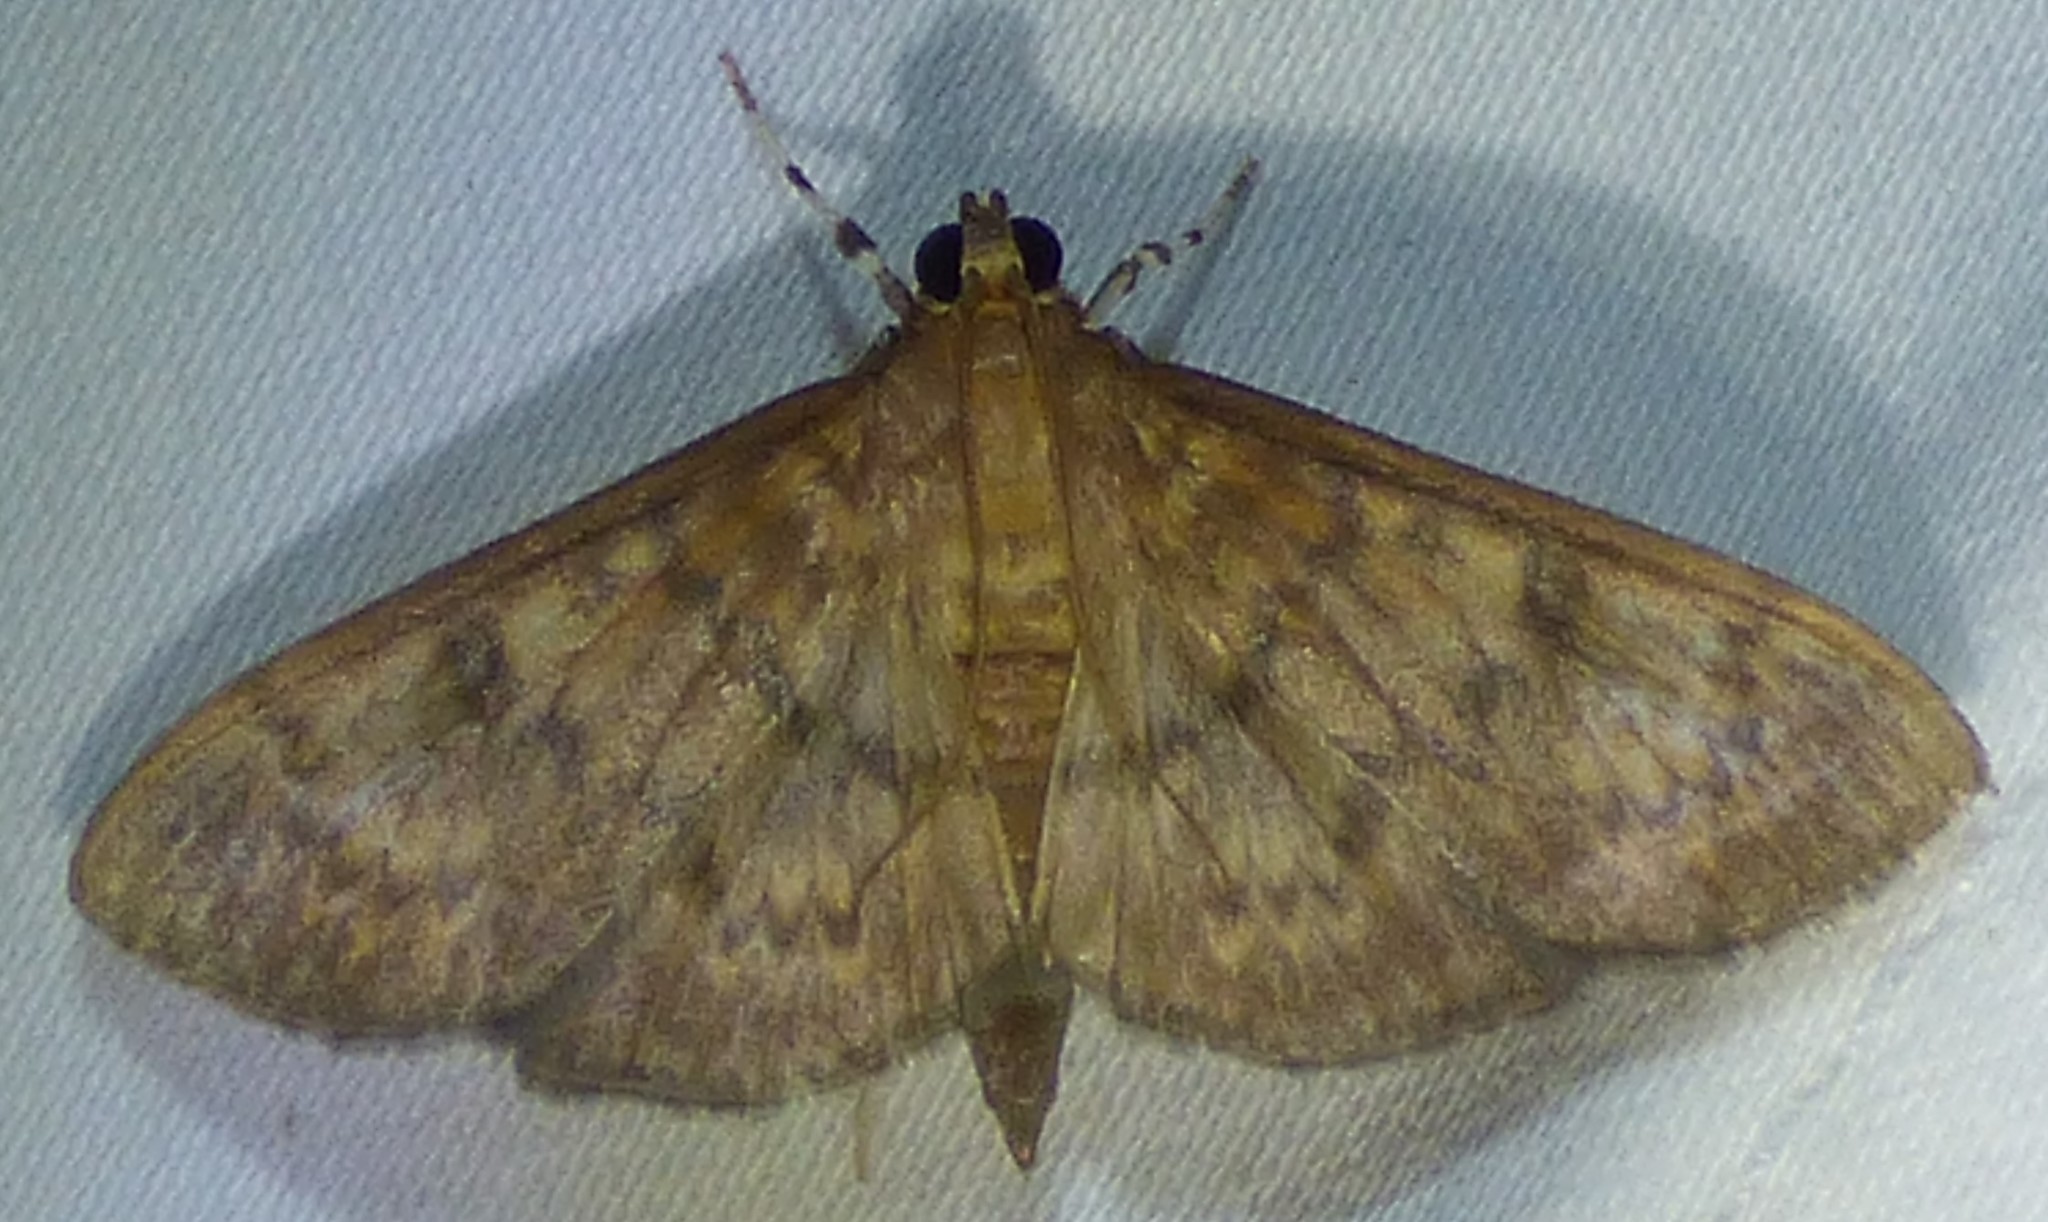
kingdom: Animalia
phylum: Arthropoda
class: Insecta
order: Lepidoptera
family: Crambidae
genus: Syllepte
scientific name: Syllepte obscuralis
